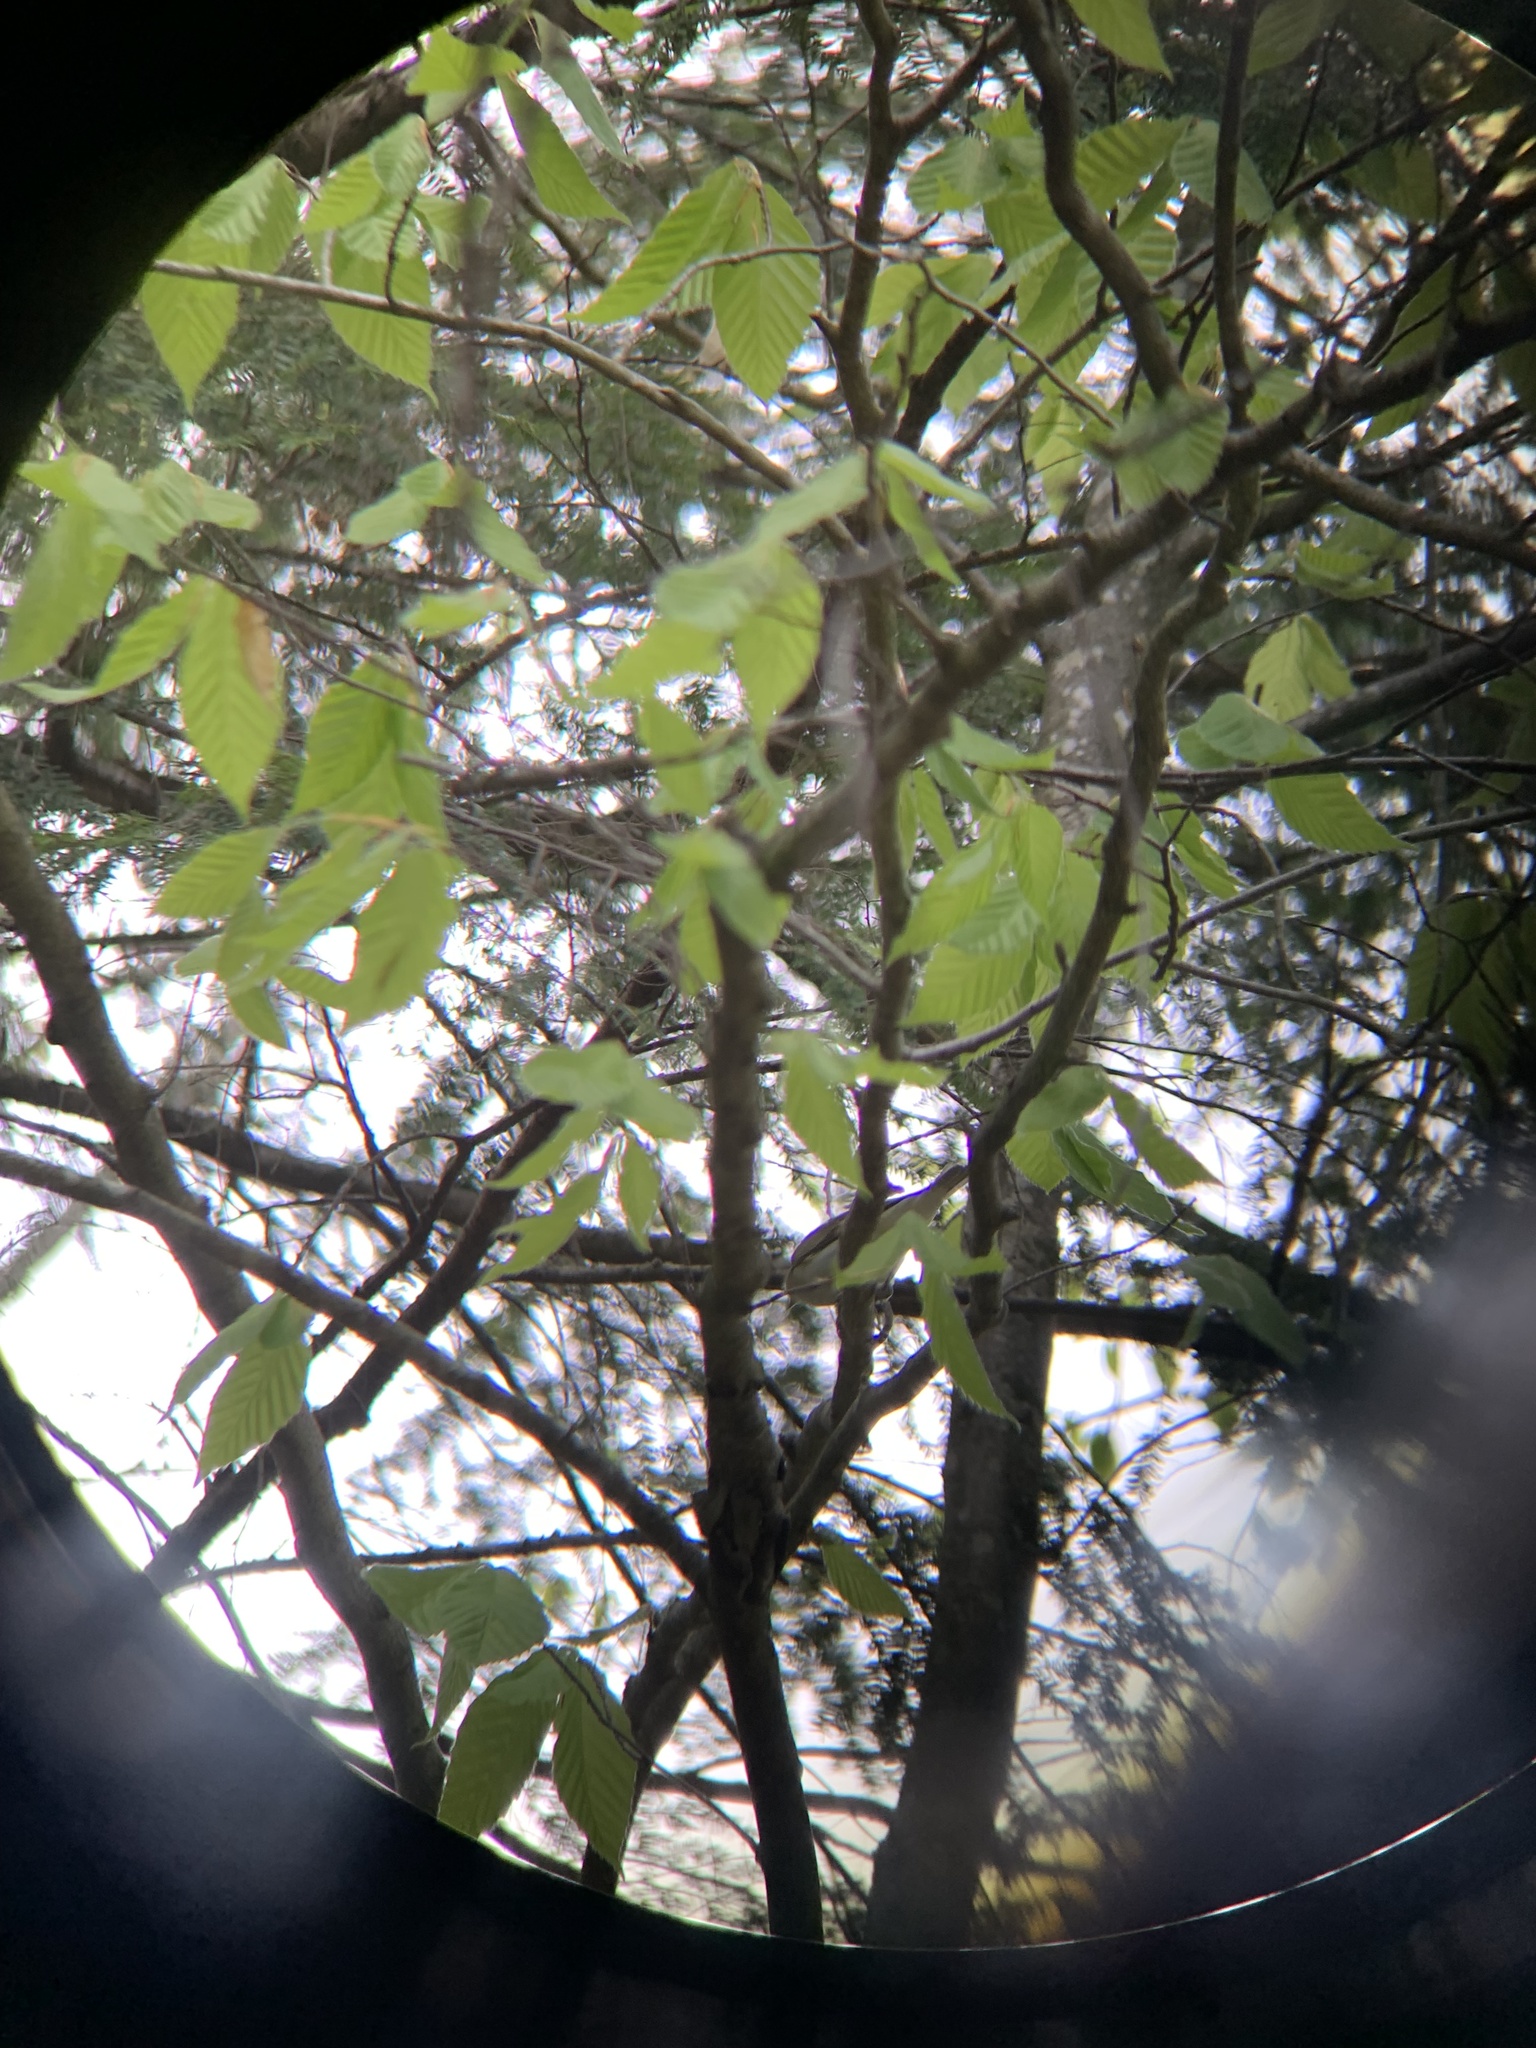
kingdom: Animalia
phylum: Chordata
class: Aves
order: Passeriformes
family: Vireonidae
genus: Vireo
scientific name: Vireo olivaceus
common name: Red-eyed vireo
